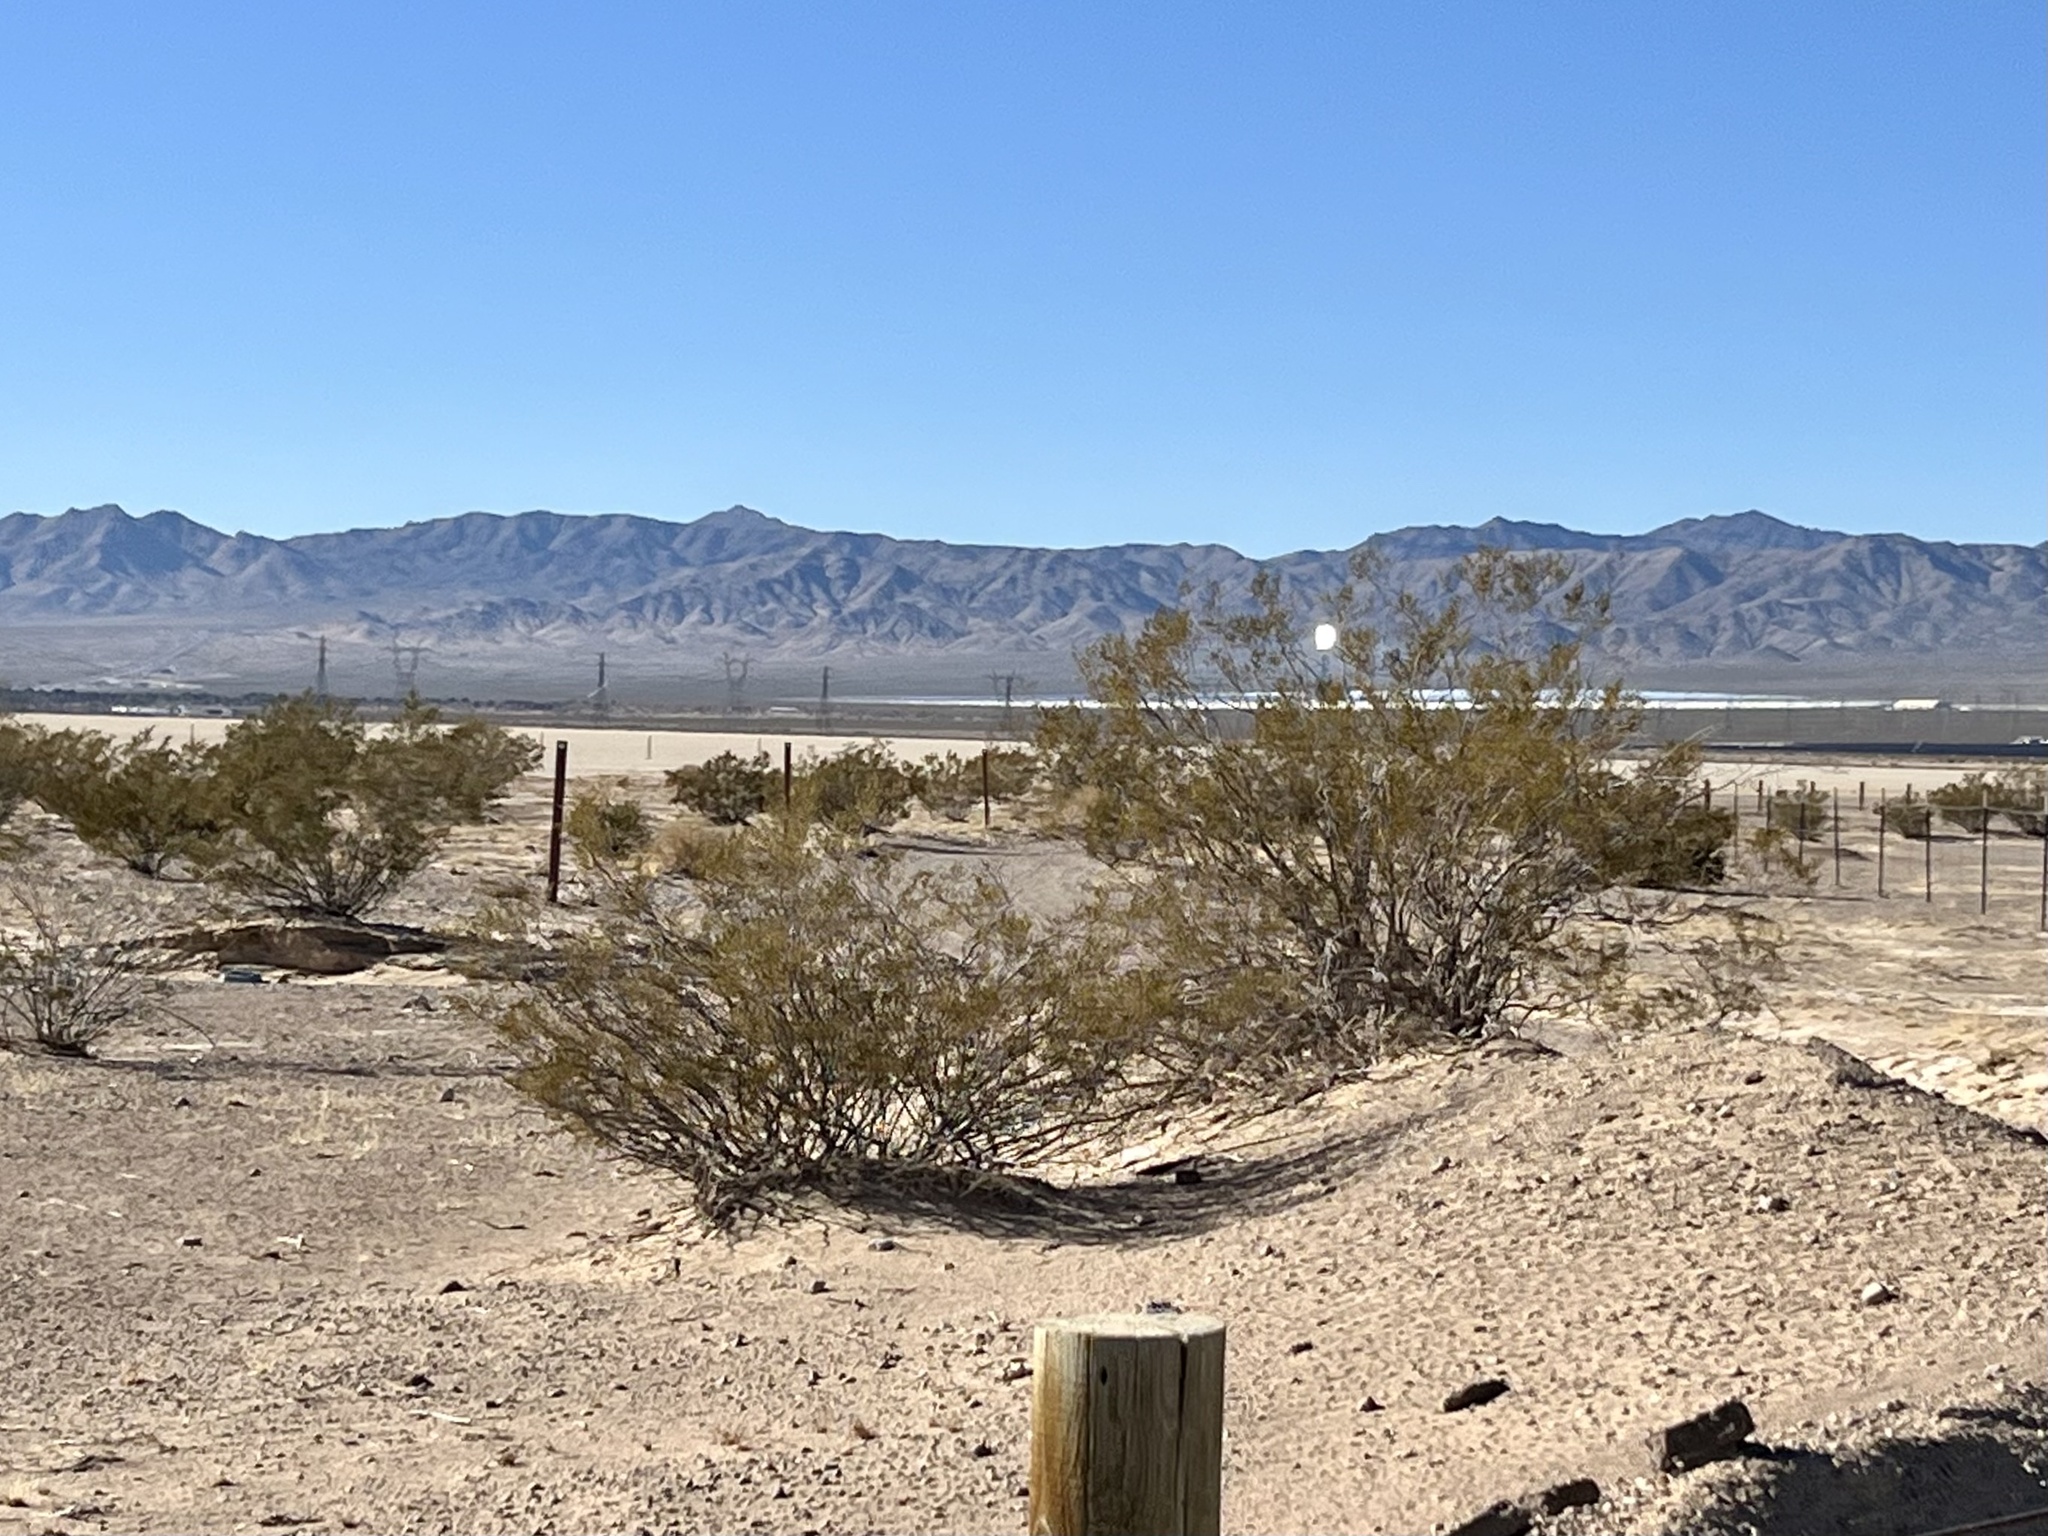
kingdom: Plantae
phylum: Tracheophyta
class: Magnoliopsida
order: Zygophyllales
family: Zygophyllaceae
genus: Larrea
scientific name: Larrea tridentata
